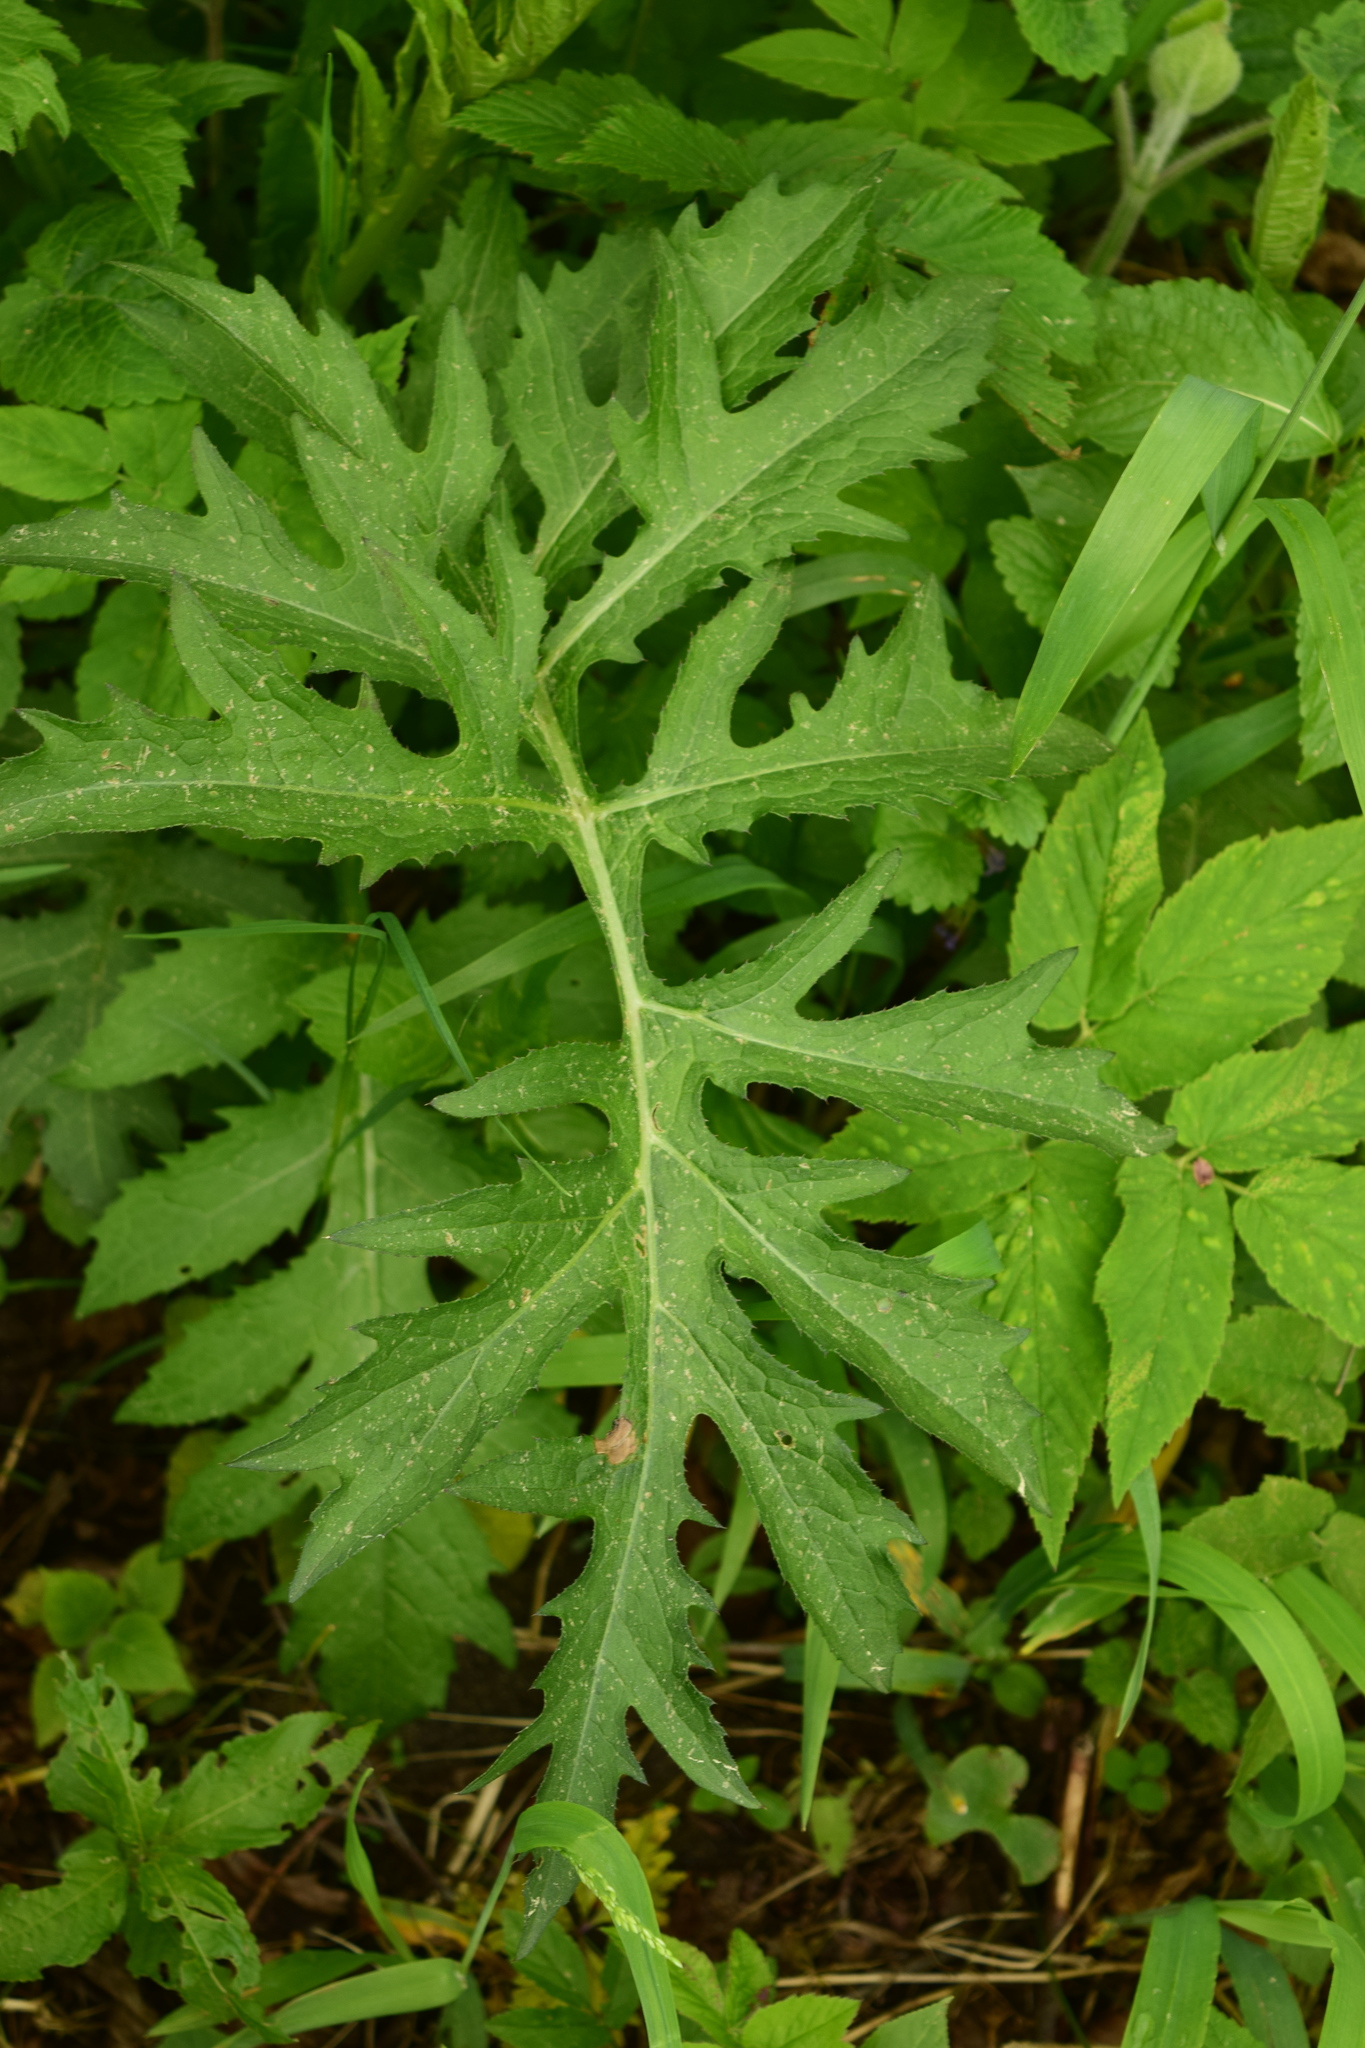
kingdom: Plantae
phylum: Tracheophyta
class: Magnoliopsida
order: Asterales
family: Asteraceae
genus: Cirsium
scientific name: Cirsium oleraceum
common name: Cabbage thistle
